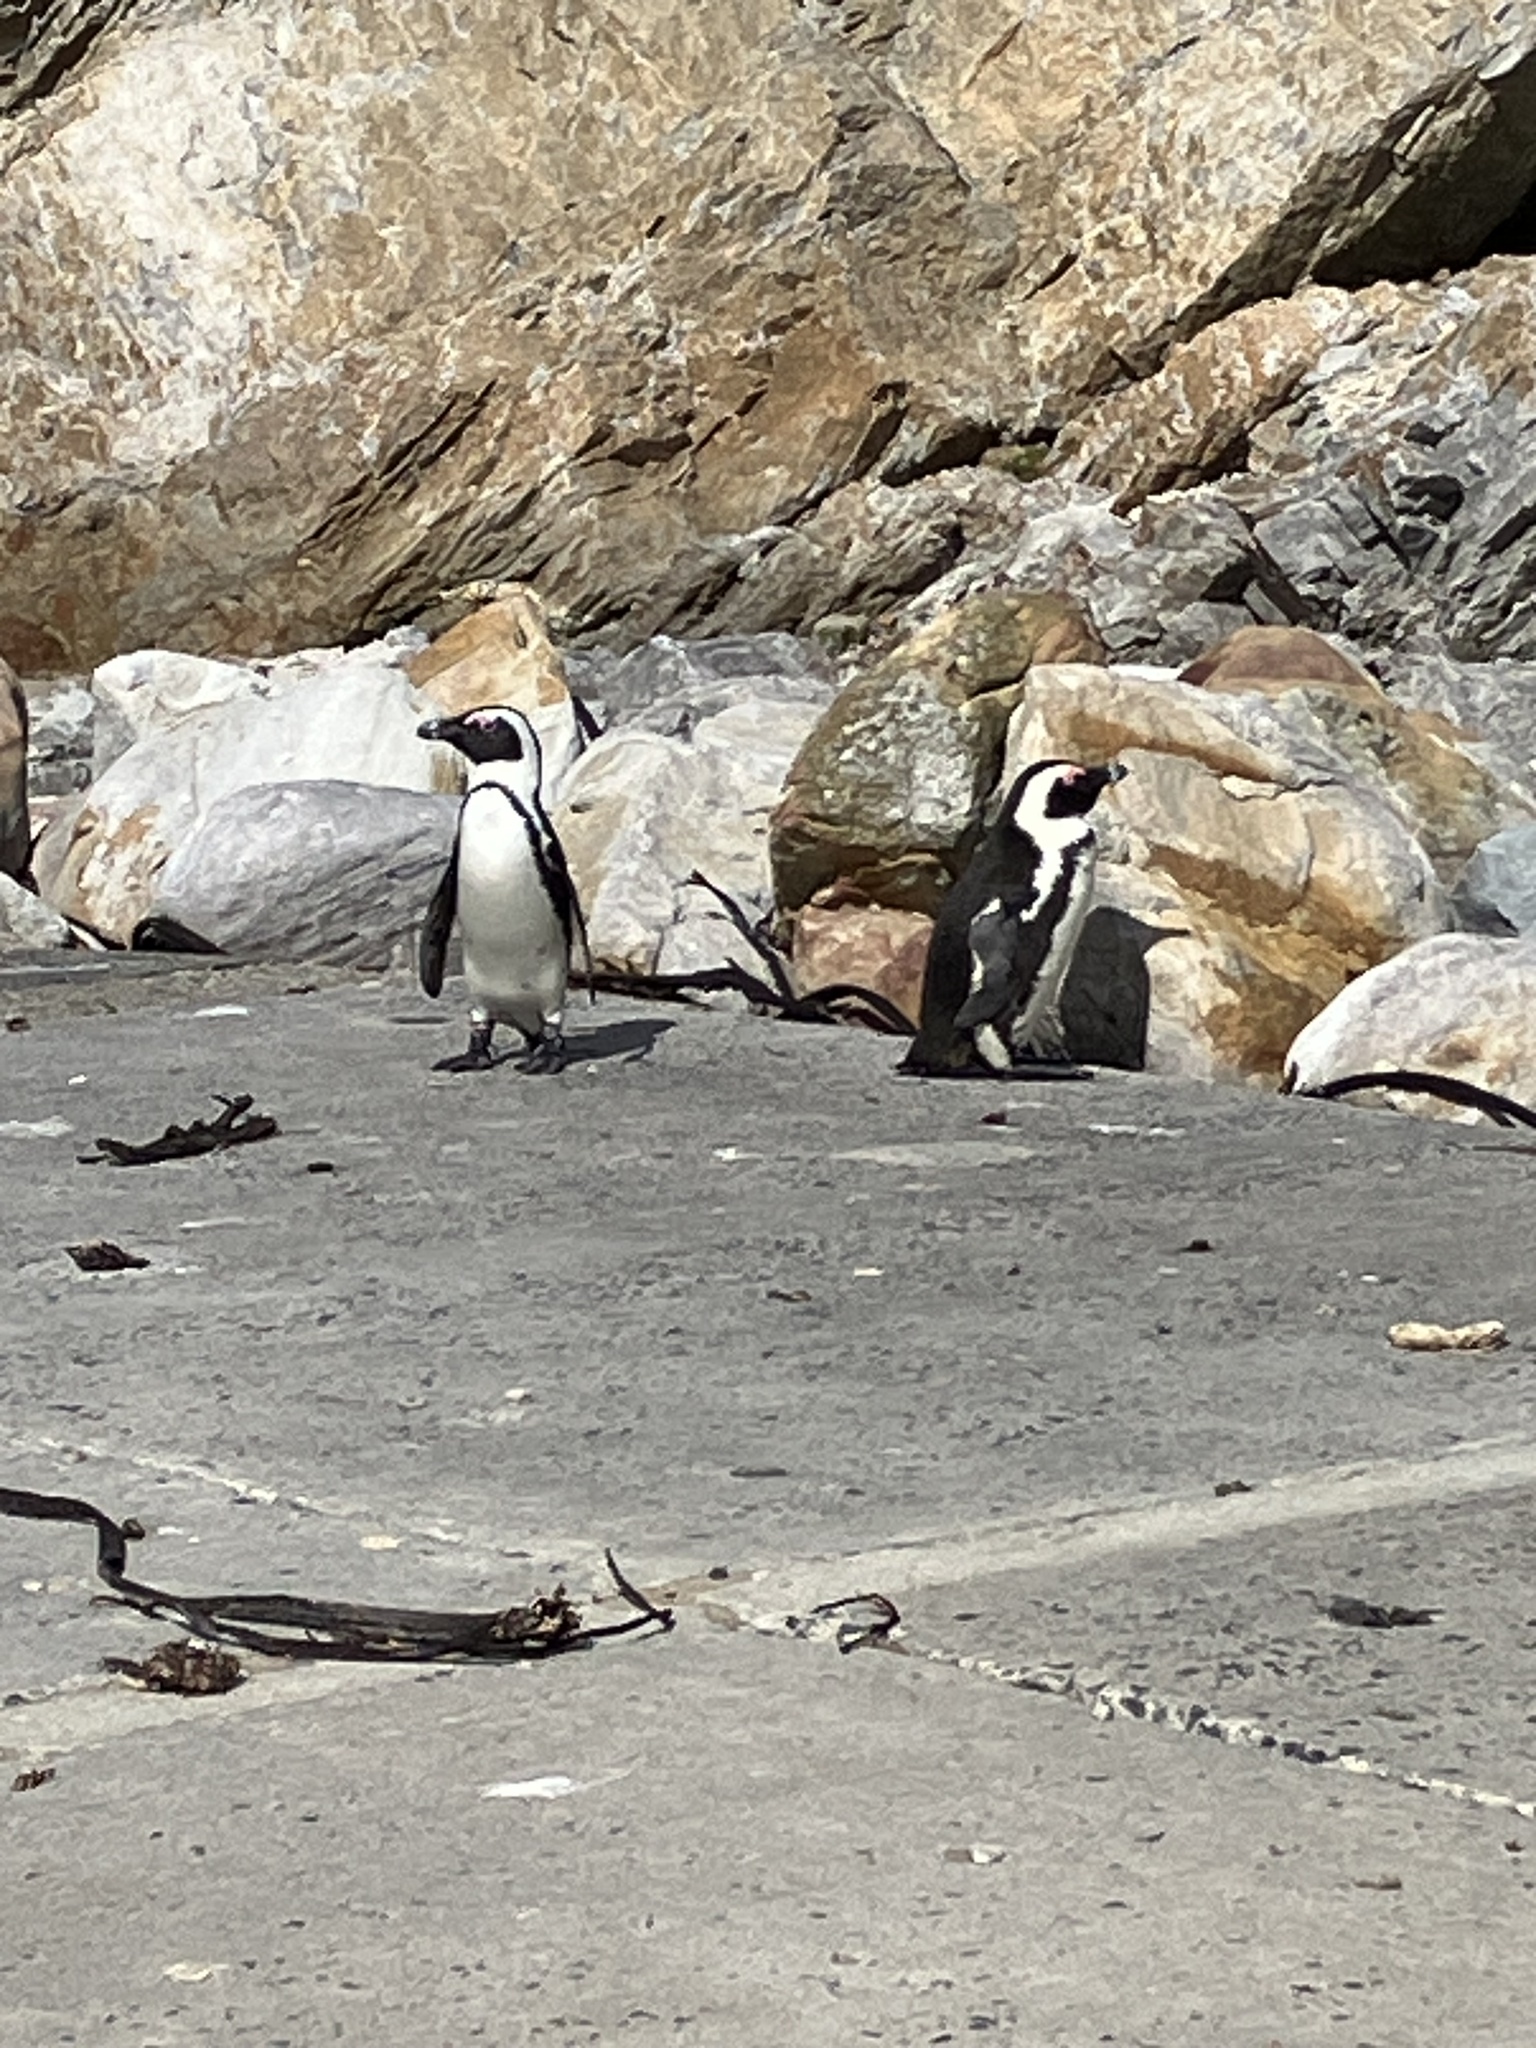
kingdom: Animalia
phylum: Chordata
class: Aves
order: Sphenisciformes
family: Spheniscidae
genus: Spheniscus
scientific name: Spheniscus demersus
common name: African penguin
